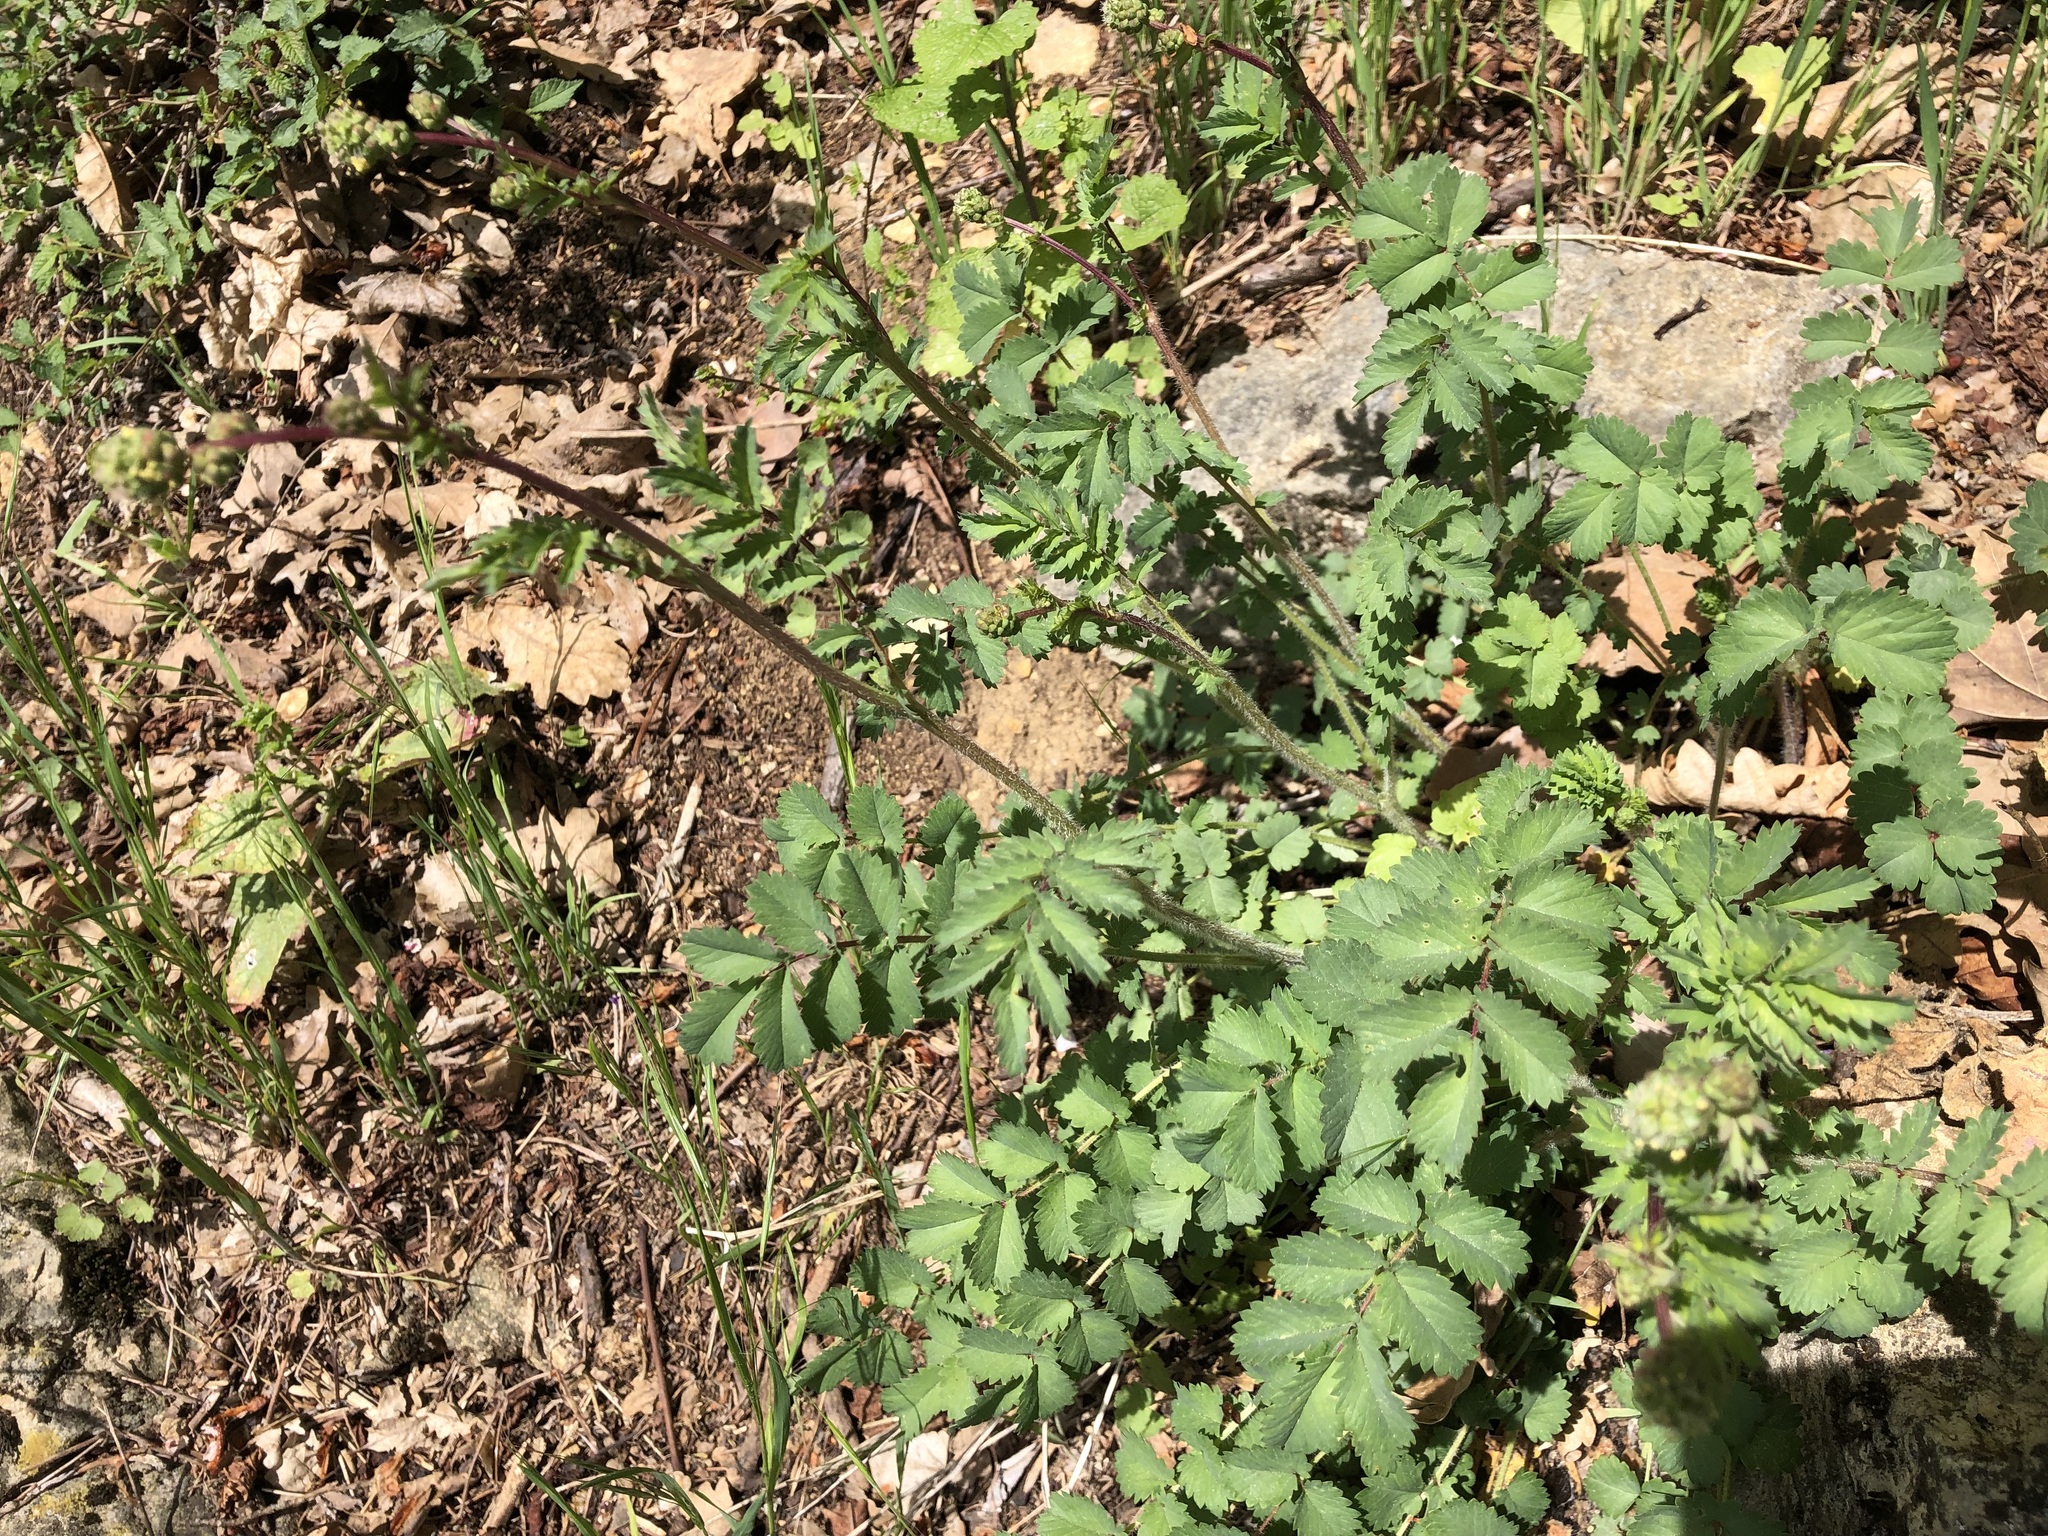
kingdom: Plantae
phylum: Tracheophyta
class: Magnoliopsida
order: Rosales
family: Rosaceae
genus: Poterium
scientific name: Poterium sanguisorba
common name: Salad burnet
